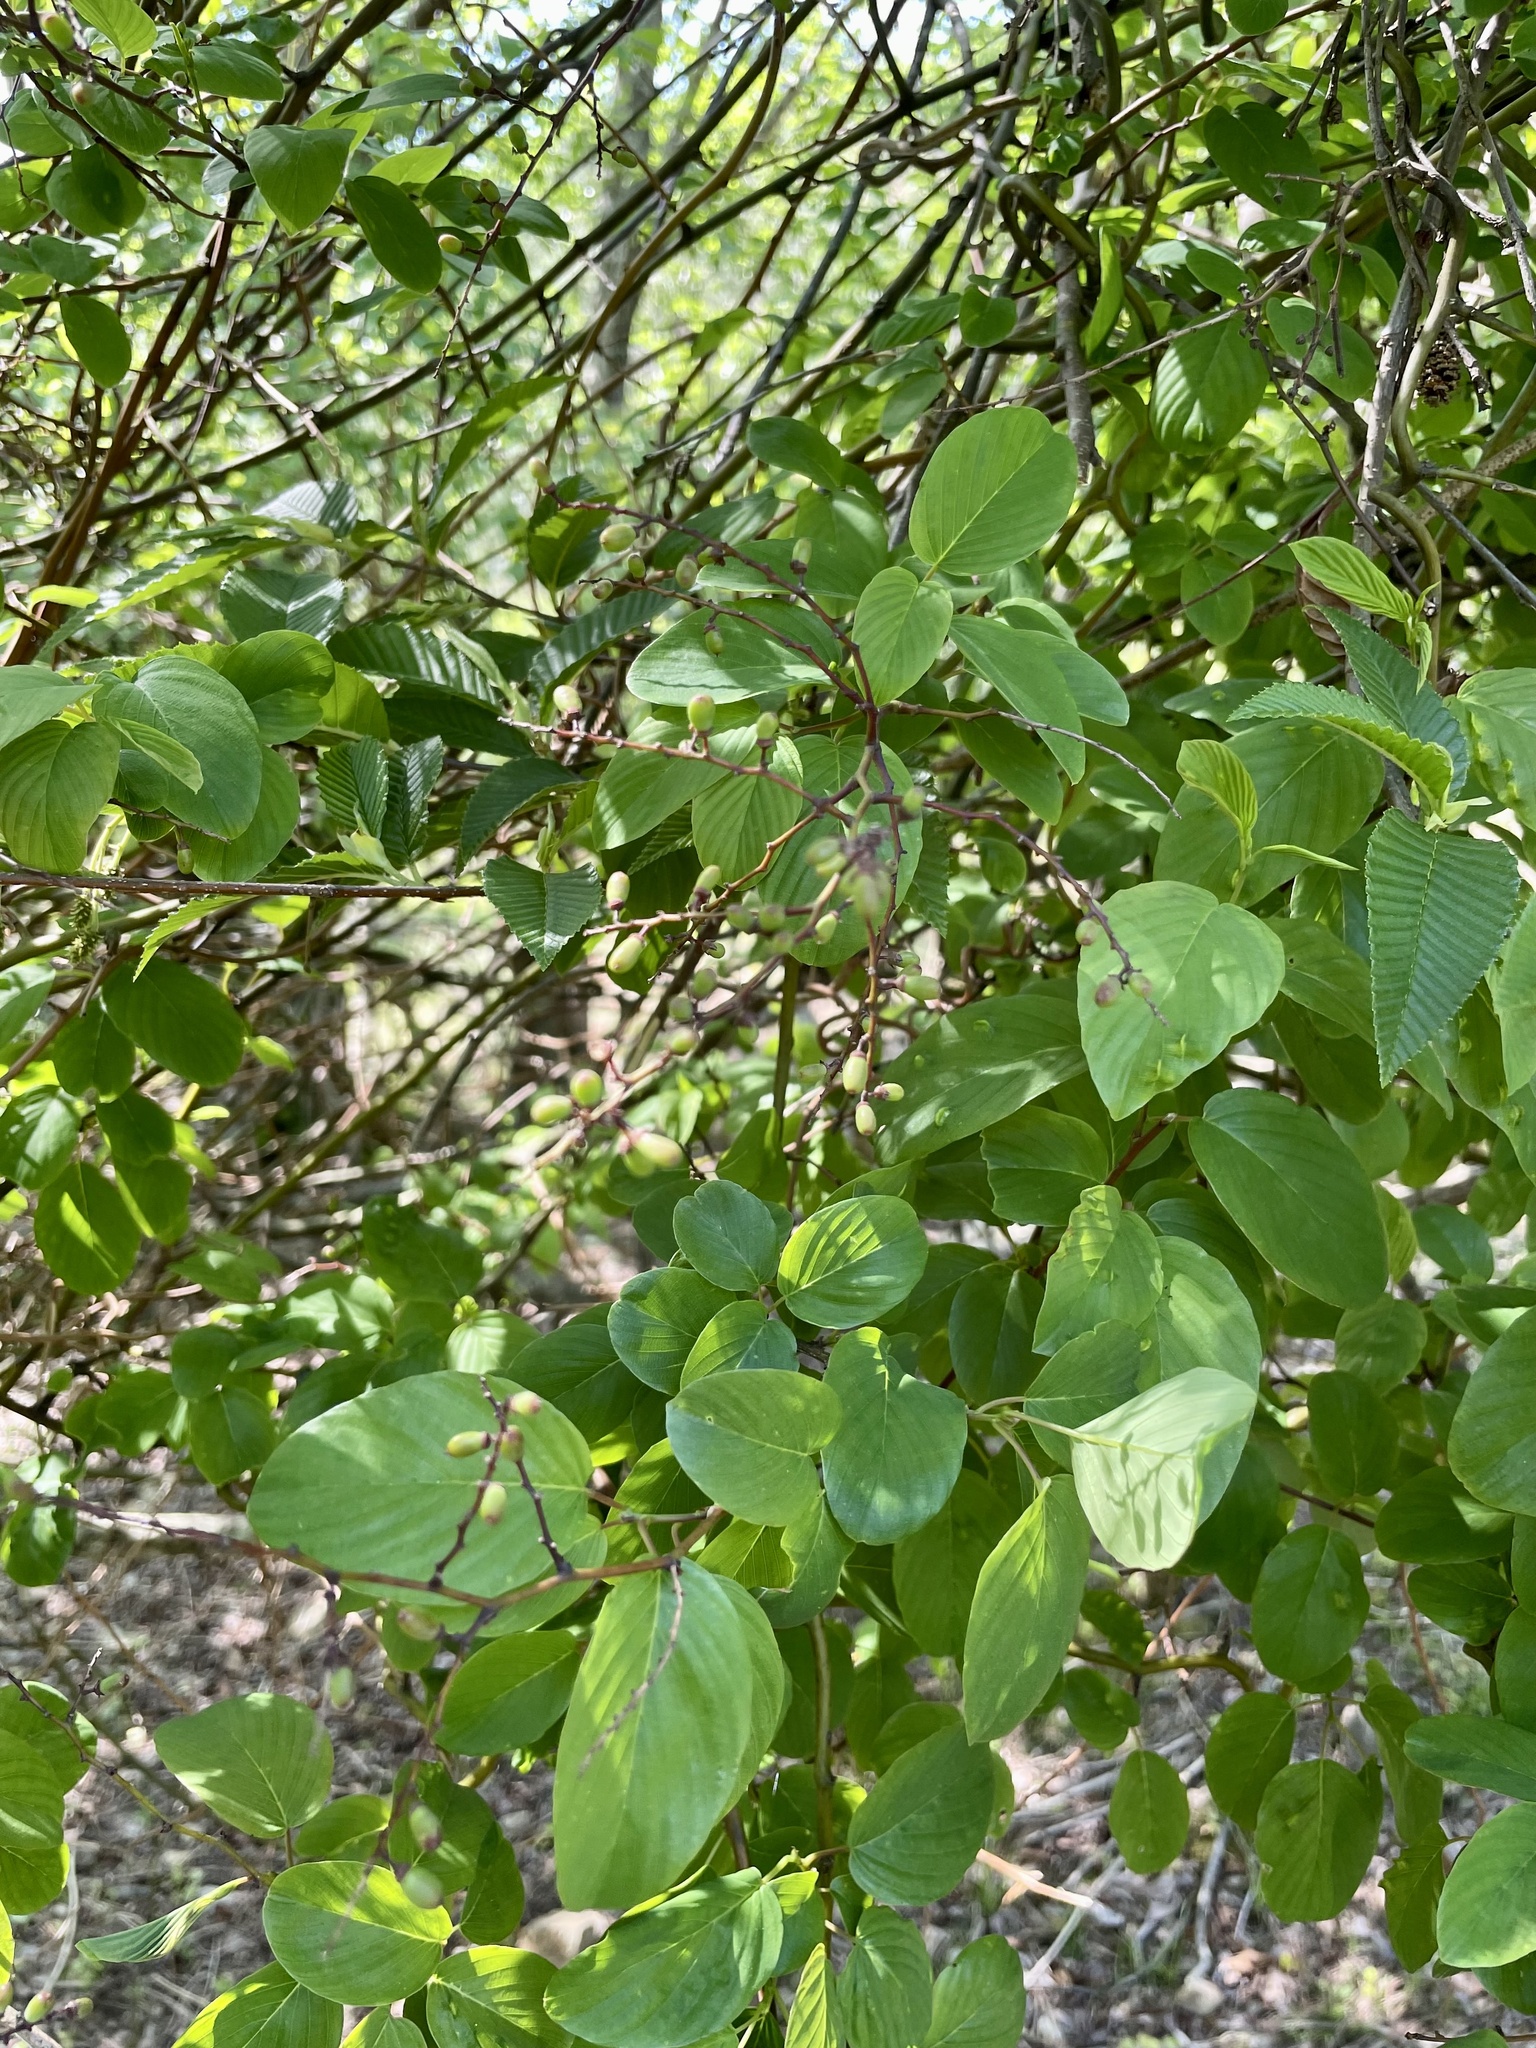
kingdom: Plantae
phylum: Tracheophyta
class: Magnoliopsida
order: Rosales
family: Rhamnaceae
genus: Berchemia
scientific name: Berchemia floribunda
